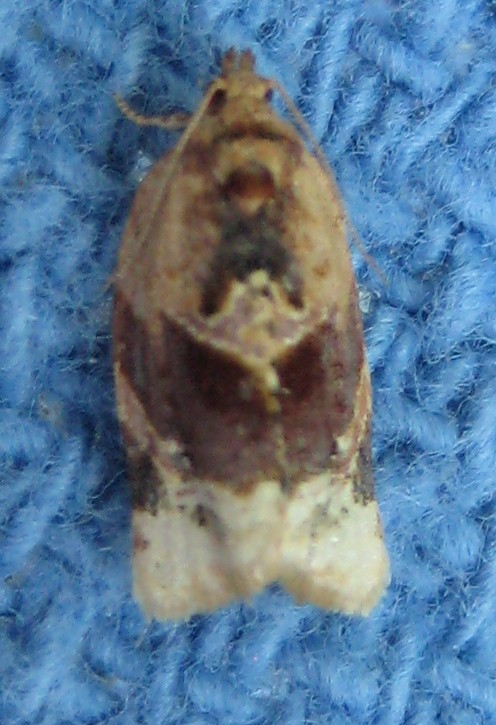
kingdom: Animalia
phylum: Arthropoda
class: Insecta
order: Lepidoptera
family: Tortricidae
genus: Argyrotaenia
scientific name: Argyrotaenia velutinana
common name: Red-banded leafroller moth
